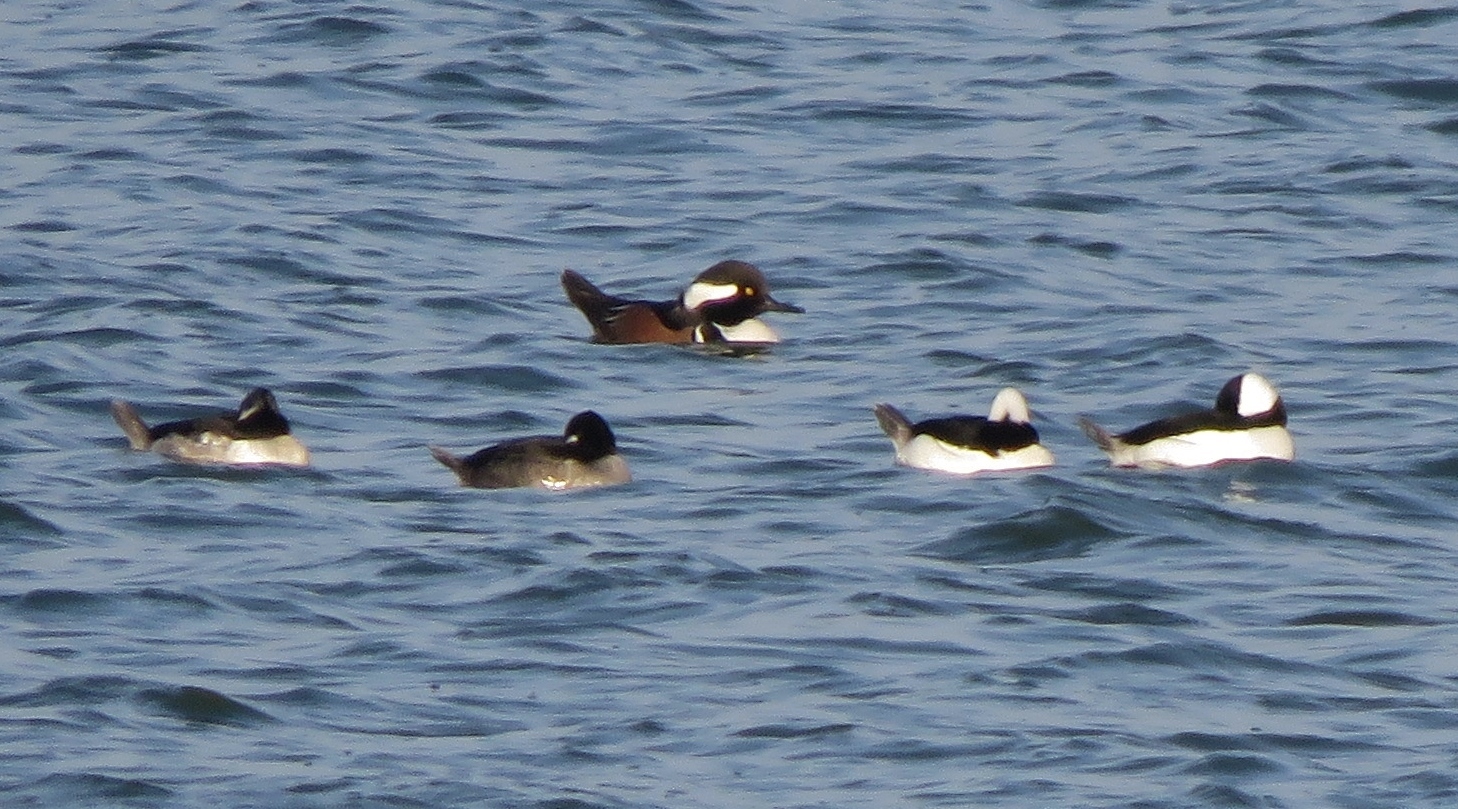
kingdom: Animalia
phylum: Chordata
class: Aves
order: Anseriformes
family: Anatidae
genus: Bucephala
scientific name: Bucephala albeola
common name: Bufflehead
